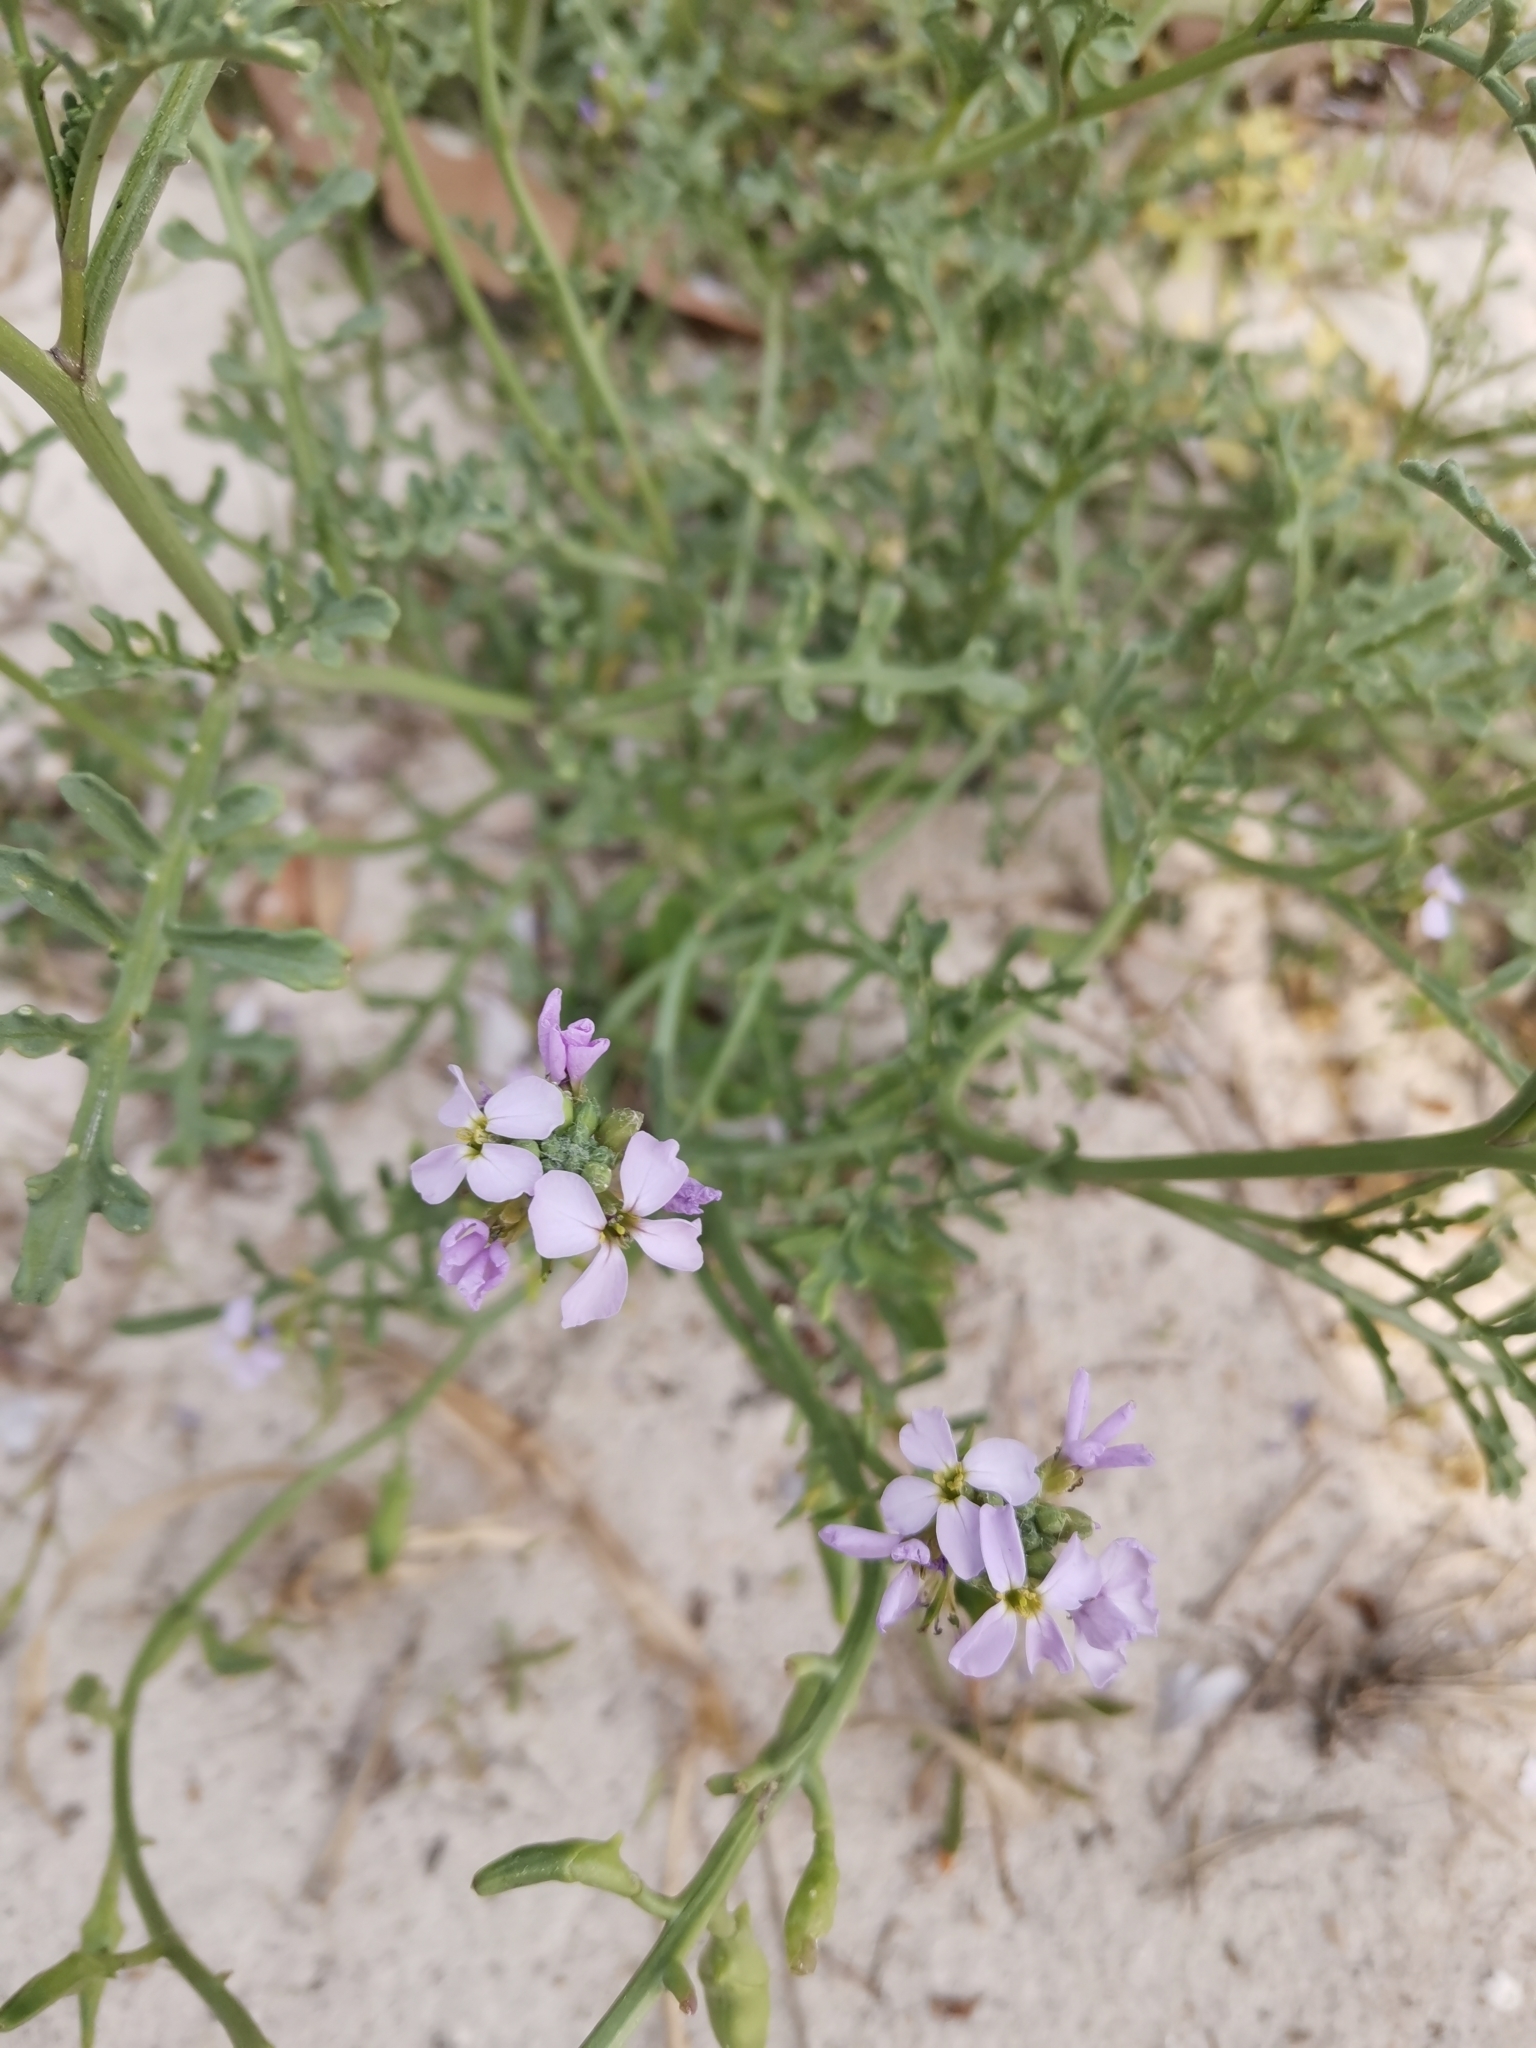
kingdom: Plantae
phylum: Tracheophyta
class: Magnoliopsida
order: Brassicales
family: Brassicaceae
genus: Cakile
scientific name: Cakile maritima
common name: Sea rocket
